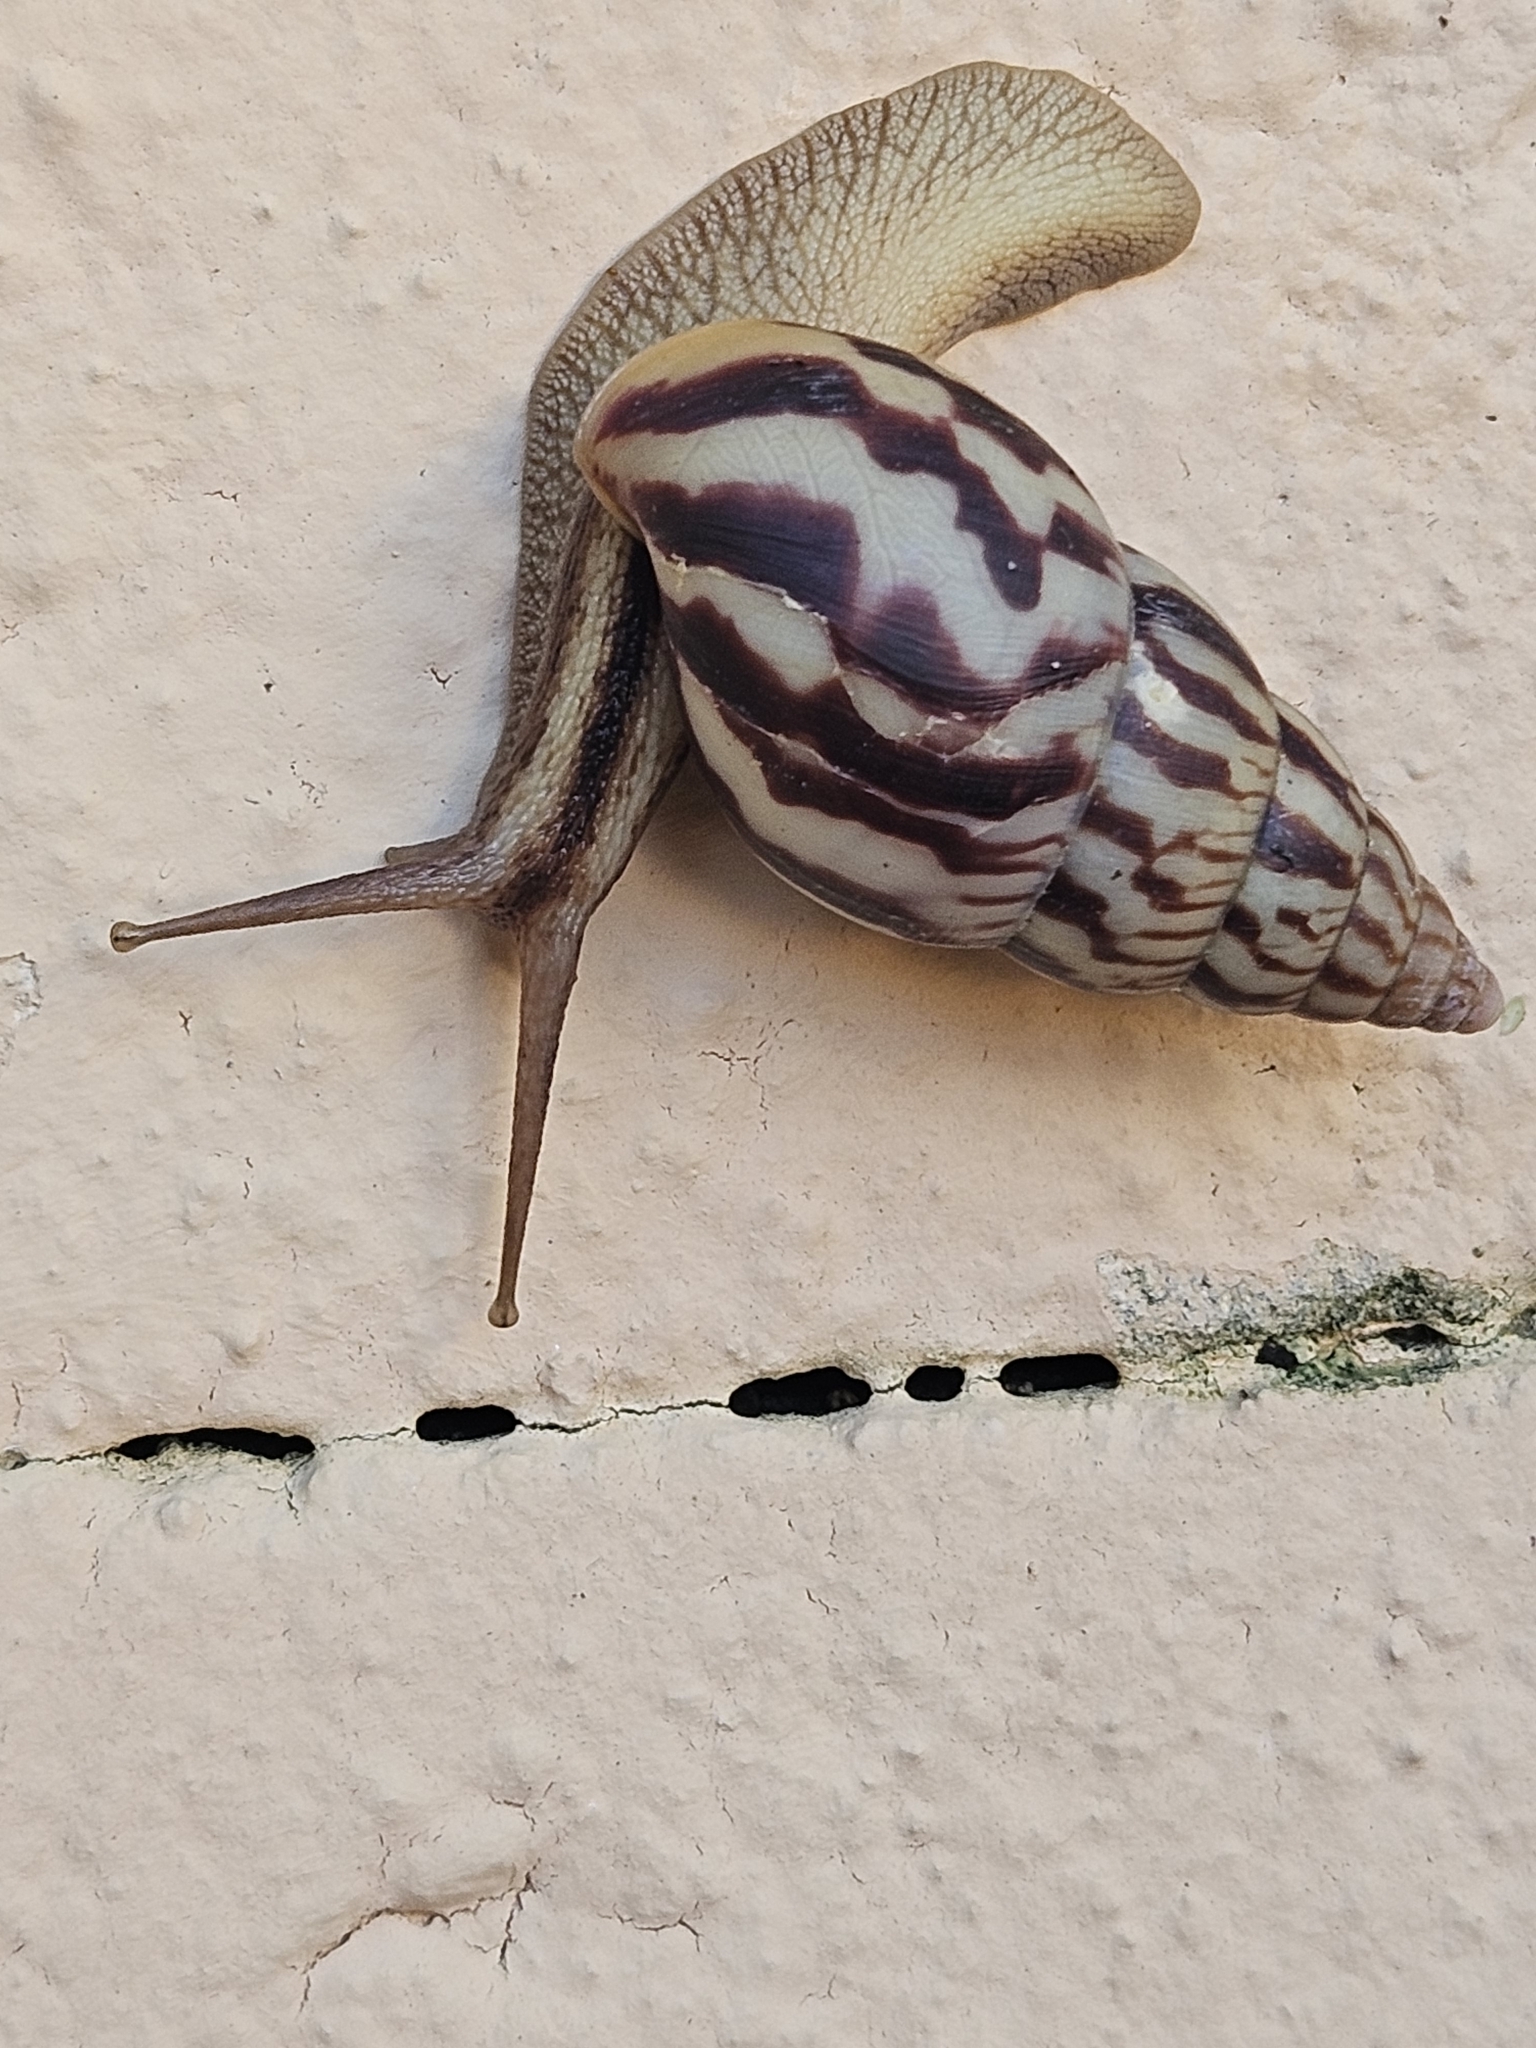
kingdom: Animalia
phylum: Mollusca
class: Gastropoda
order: Stylommatophora
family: Achatinidae
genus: Limicolaria
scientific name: Limicolaria aurora
